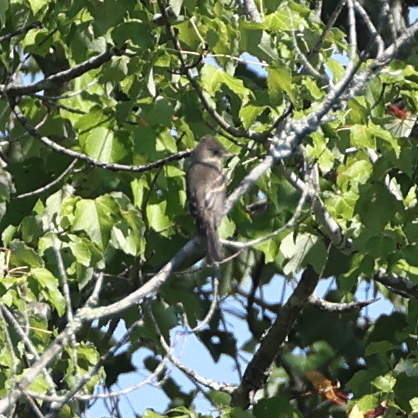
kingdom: Animalia
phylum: Chordata
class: Aves
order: Passeriformes
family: Tyrannidae
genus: Myiarchus
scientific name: Myiarchus crinitus
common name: Great crested flycatcher
